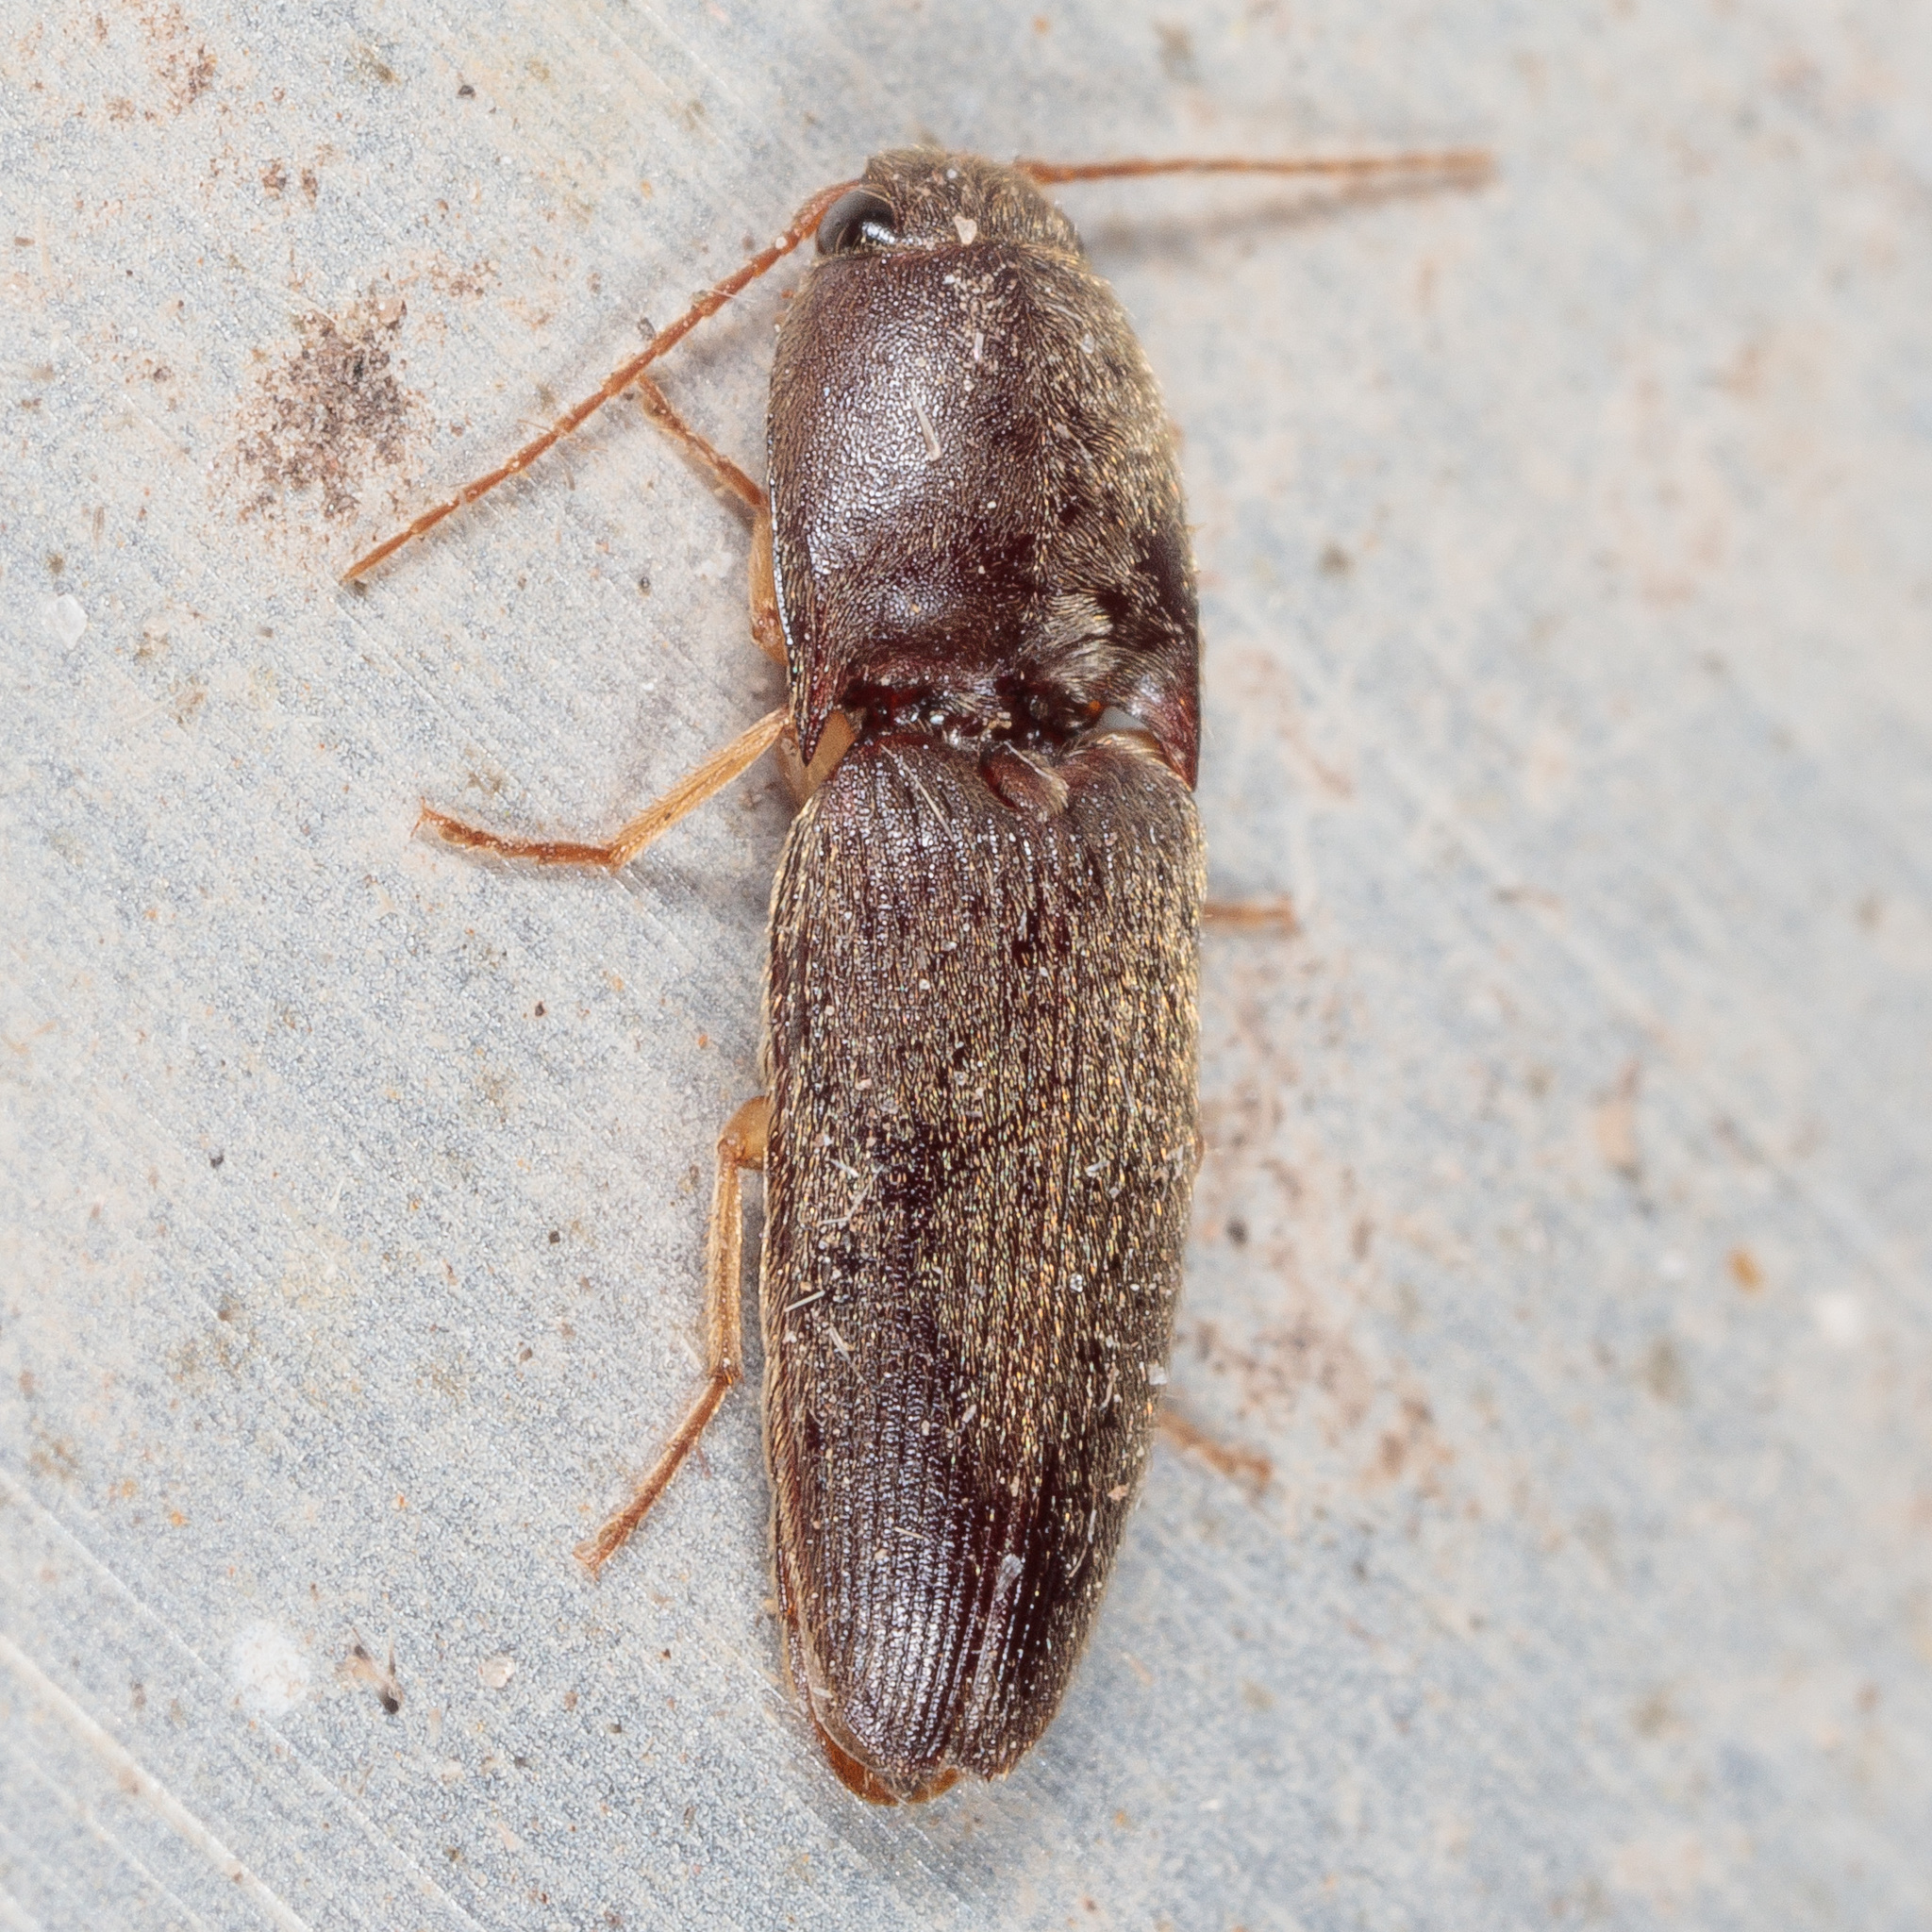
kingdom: Animalia
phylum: Arthropoda
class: Insecta
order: Coleoptera
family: Elateridae
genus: Conoderus
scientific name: Conoderus exsul
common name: Click beetle
